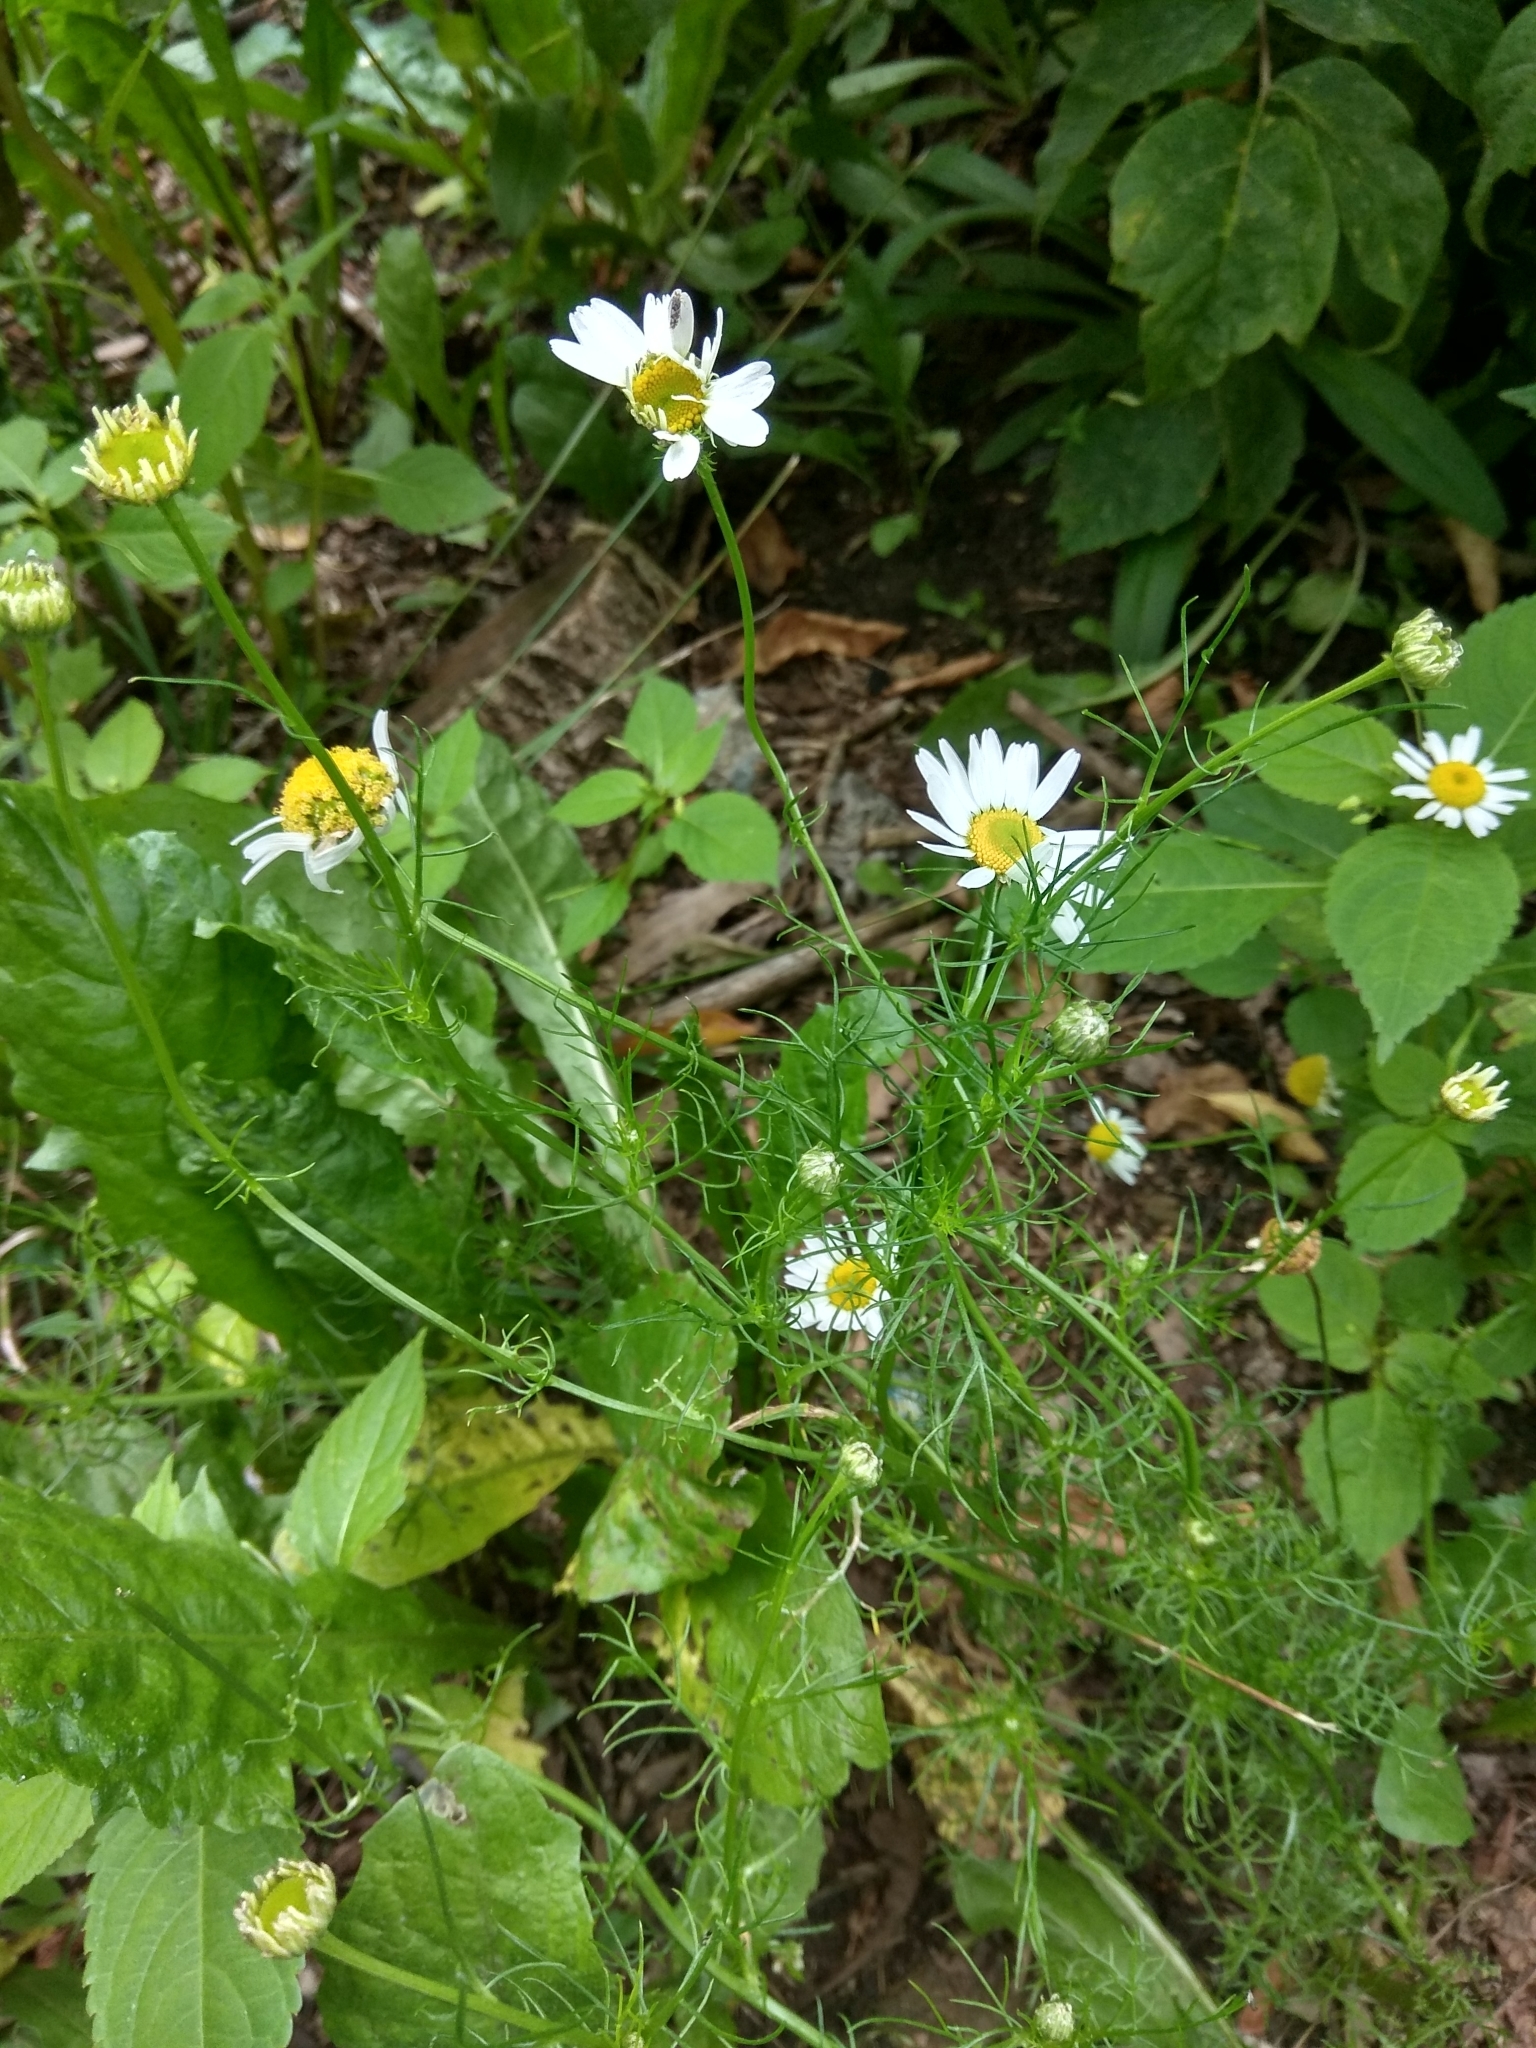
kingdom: Plantae
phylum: Tracheophyta
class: Magnoliopsida
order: Asterales
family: Asteraceae
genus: Tripleurospermum
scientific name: Tripleurospermum inodorum
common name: Scentless mayweed
